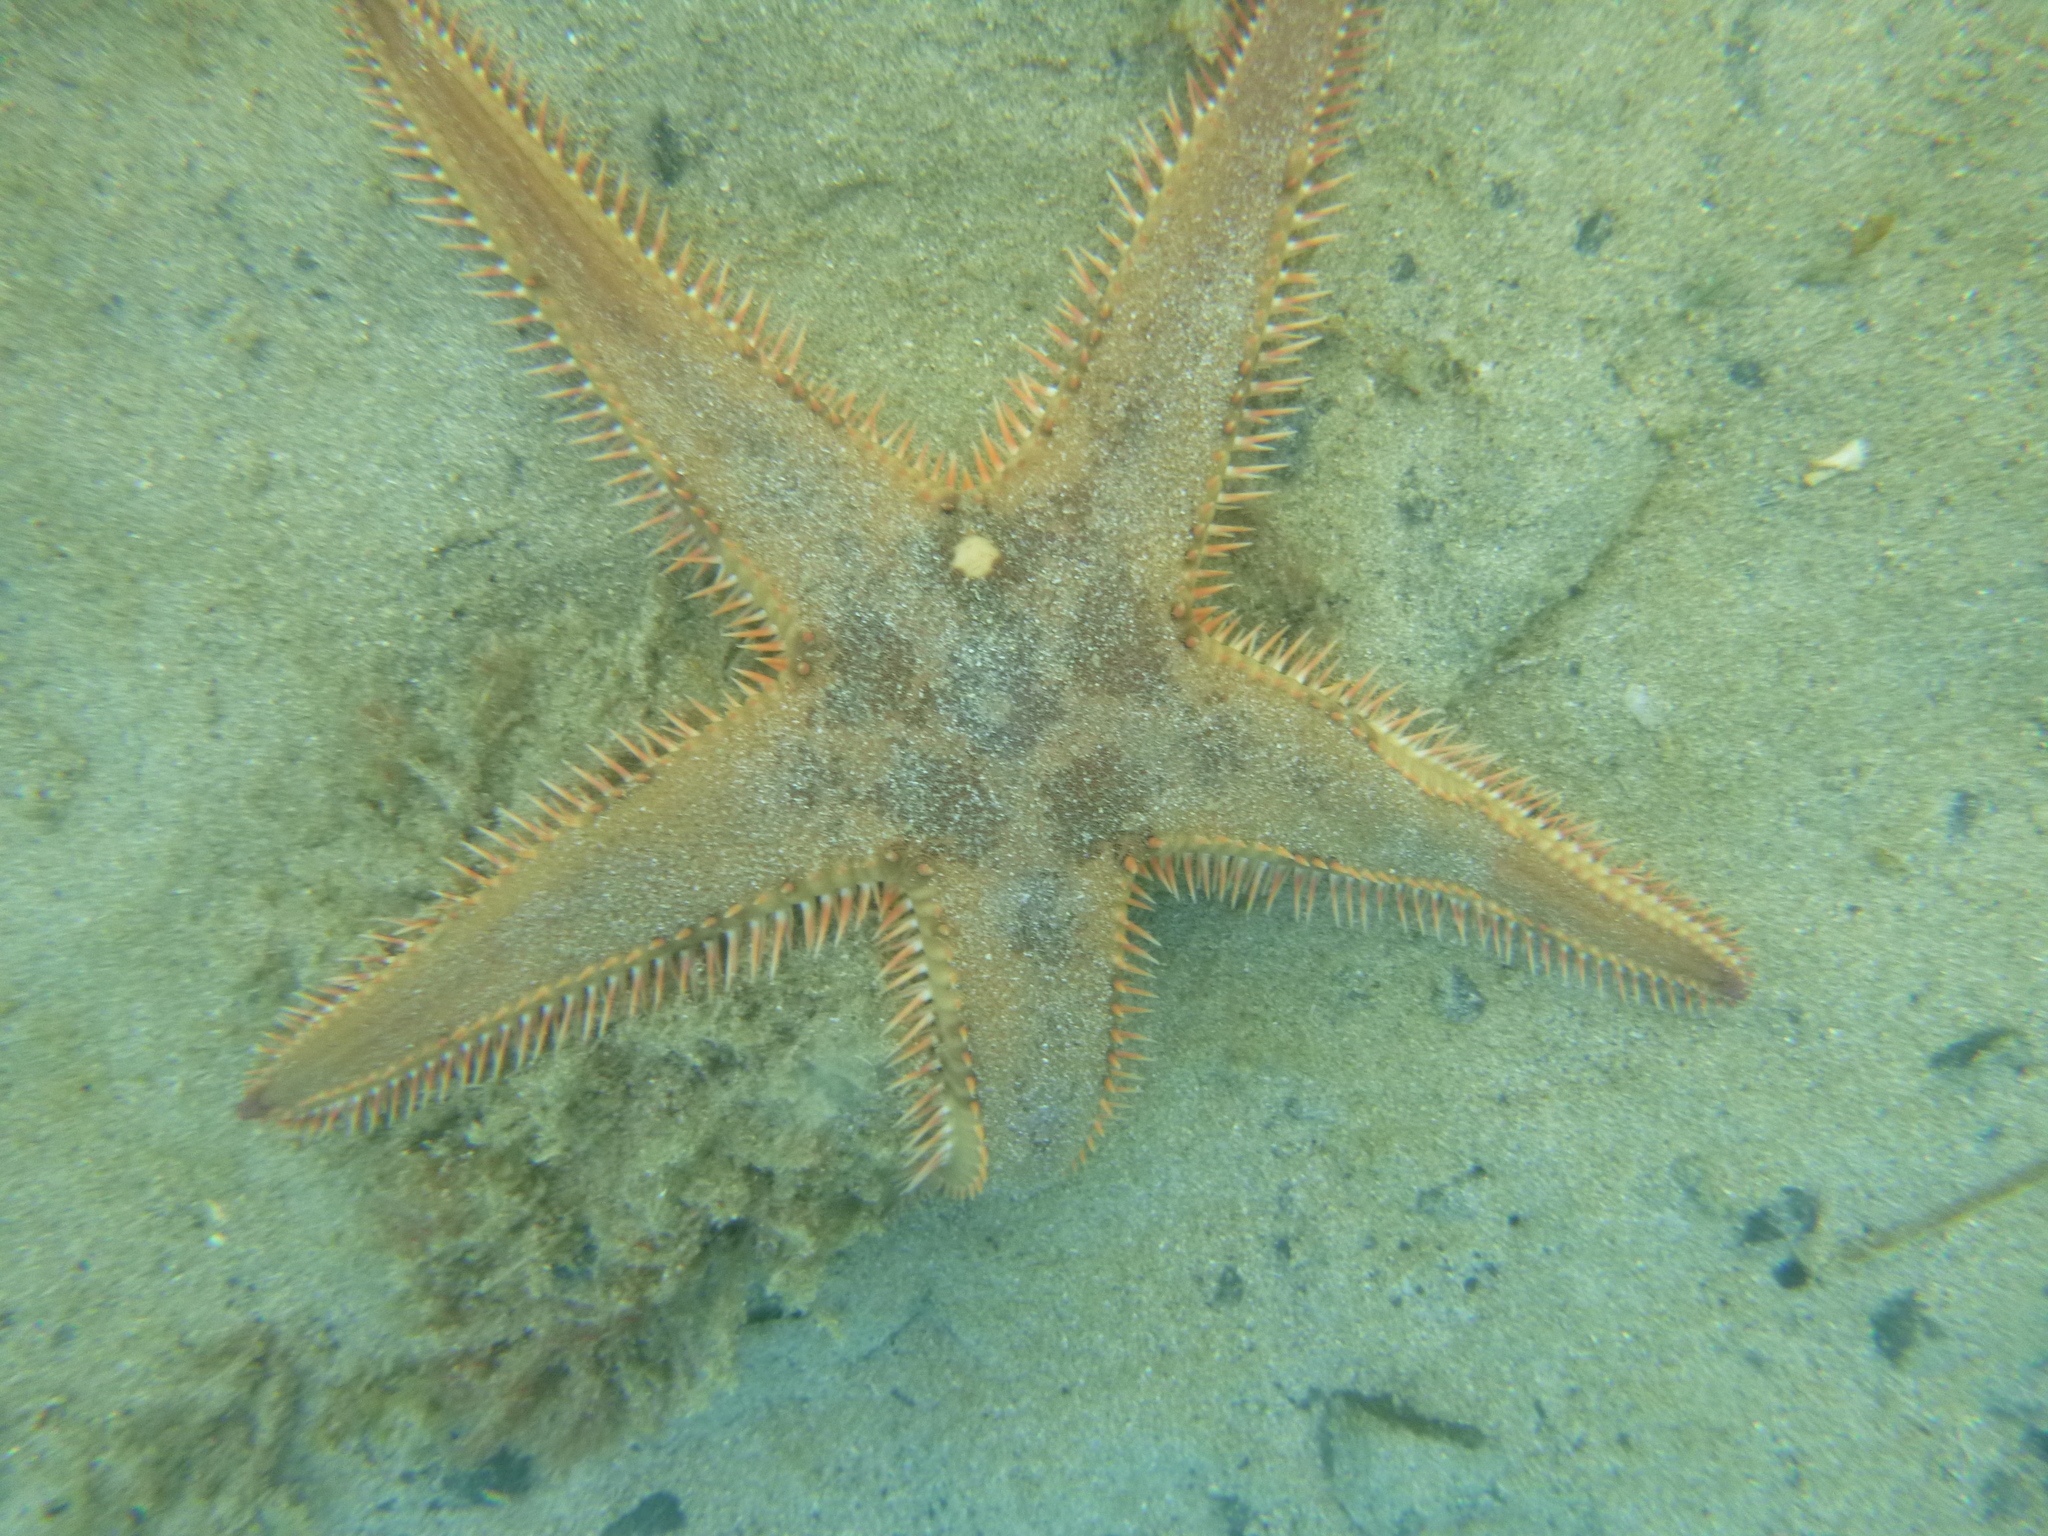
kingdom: Animalia
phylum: Echinodermata
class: Asteroidea
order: Paxillosida
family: Astropectinidae
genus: Astropecten
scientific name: Astropecten polyacanthus
